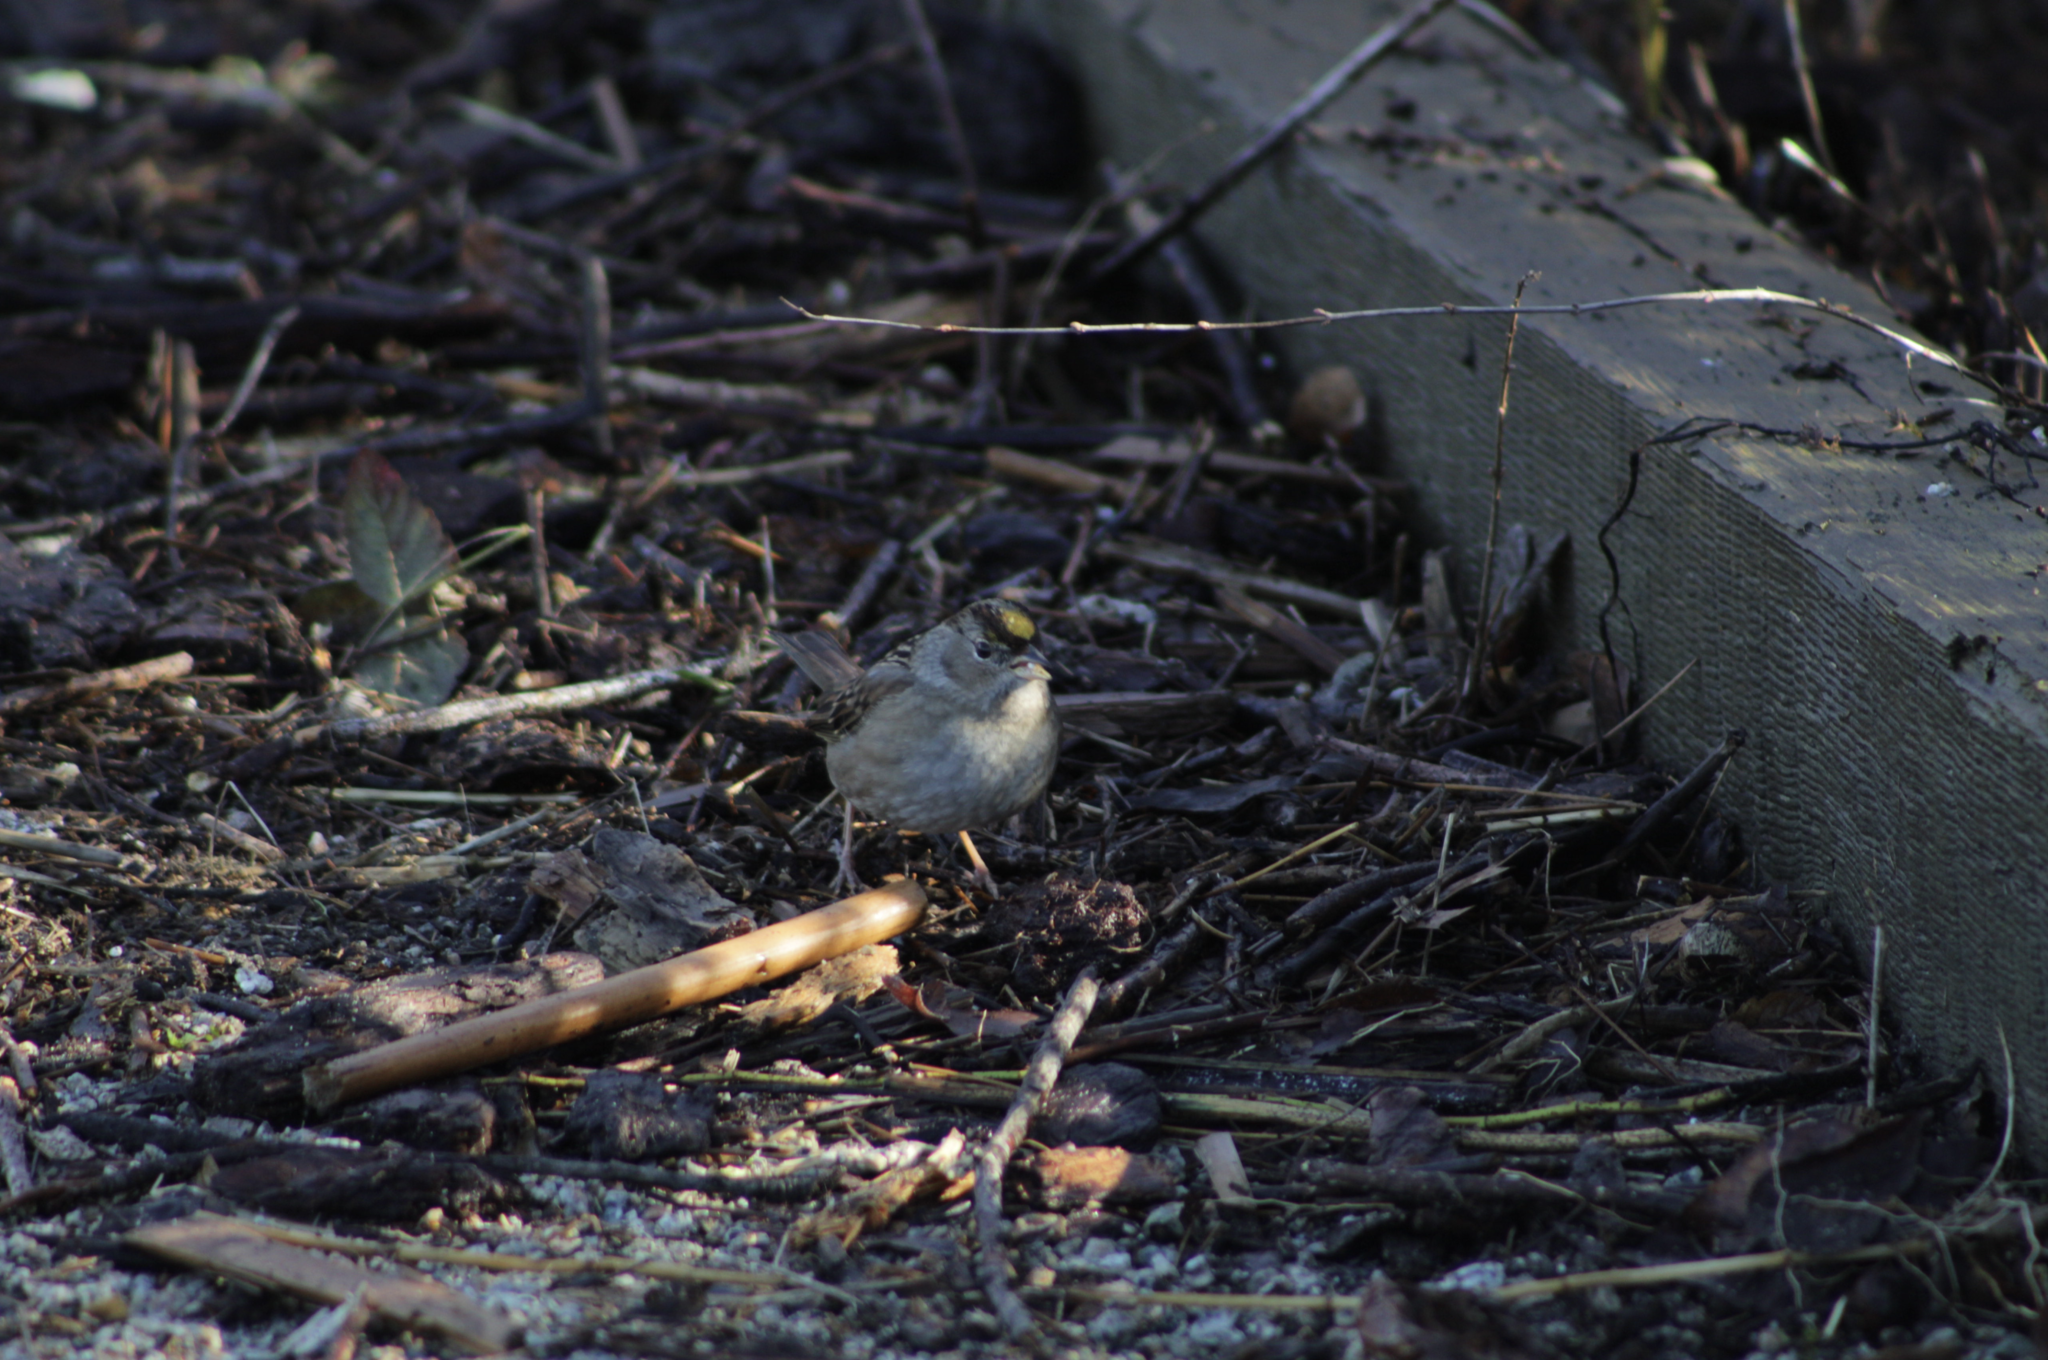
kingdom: Animalia
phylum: Chordata
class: Aves
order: Passeriformes
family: Passerellidae
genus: Zonotrichia
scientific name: Zonotrichia atricapilla
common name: Golden-crowned sparrow
